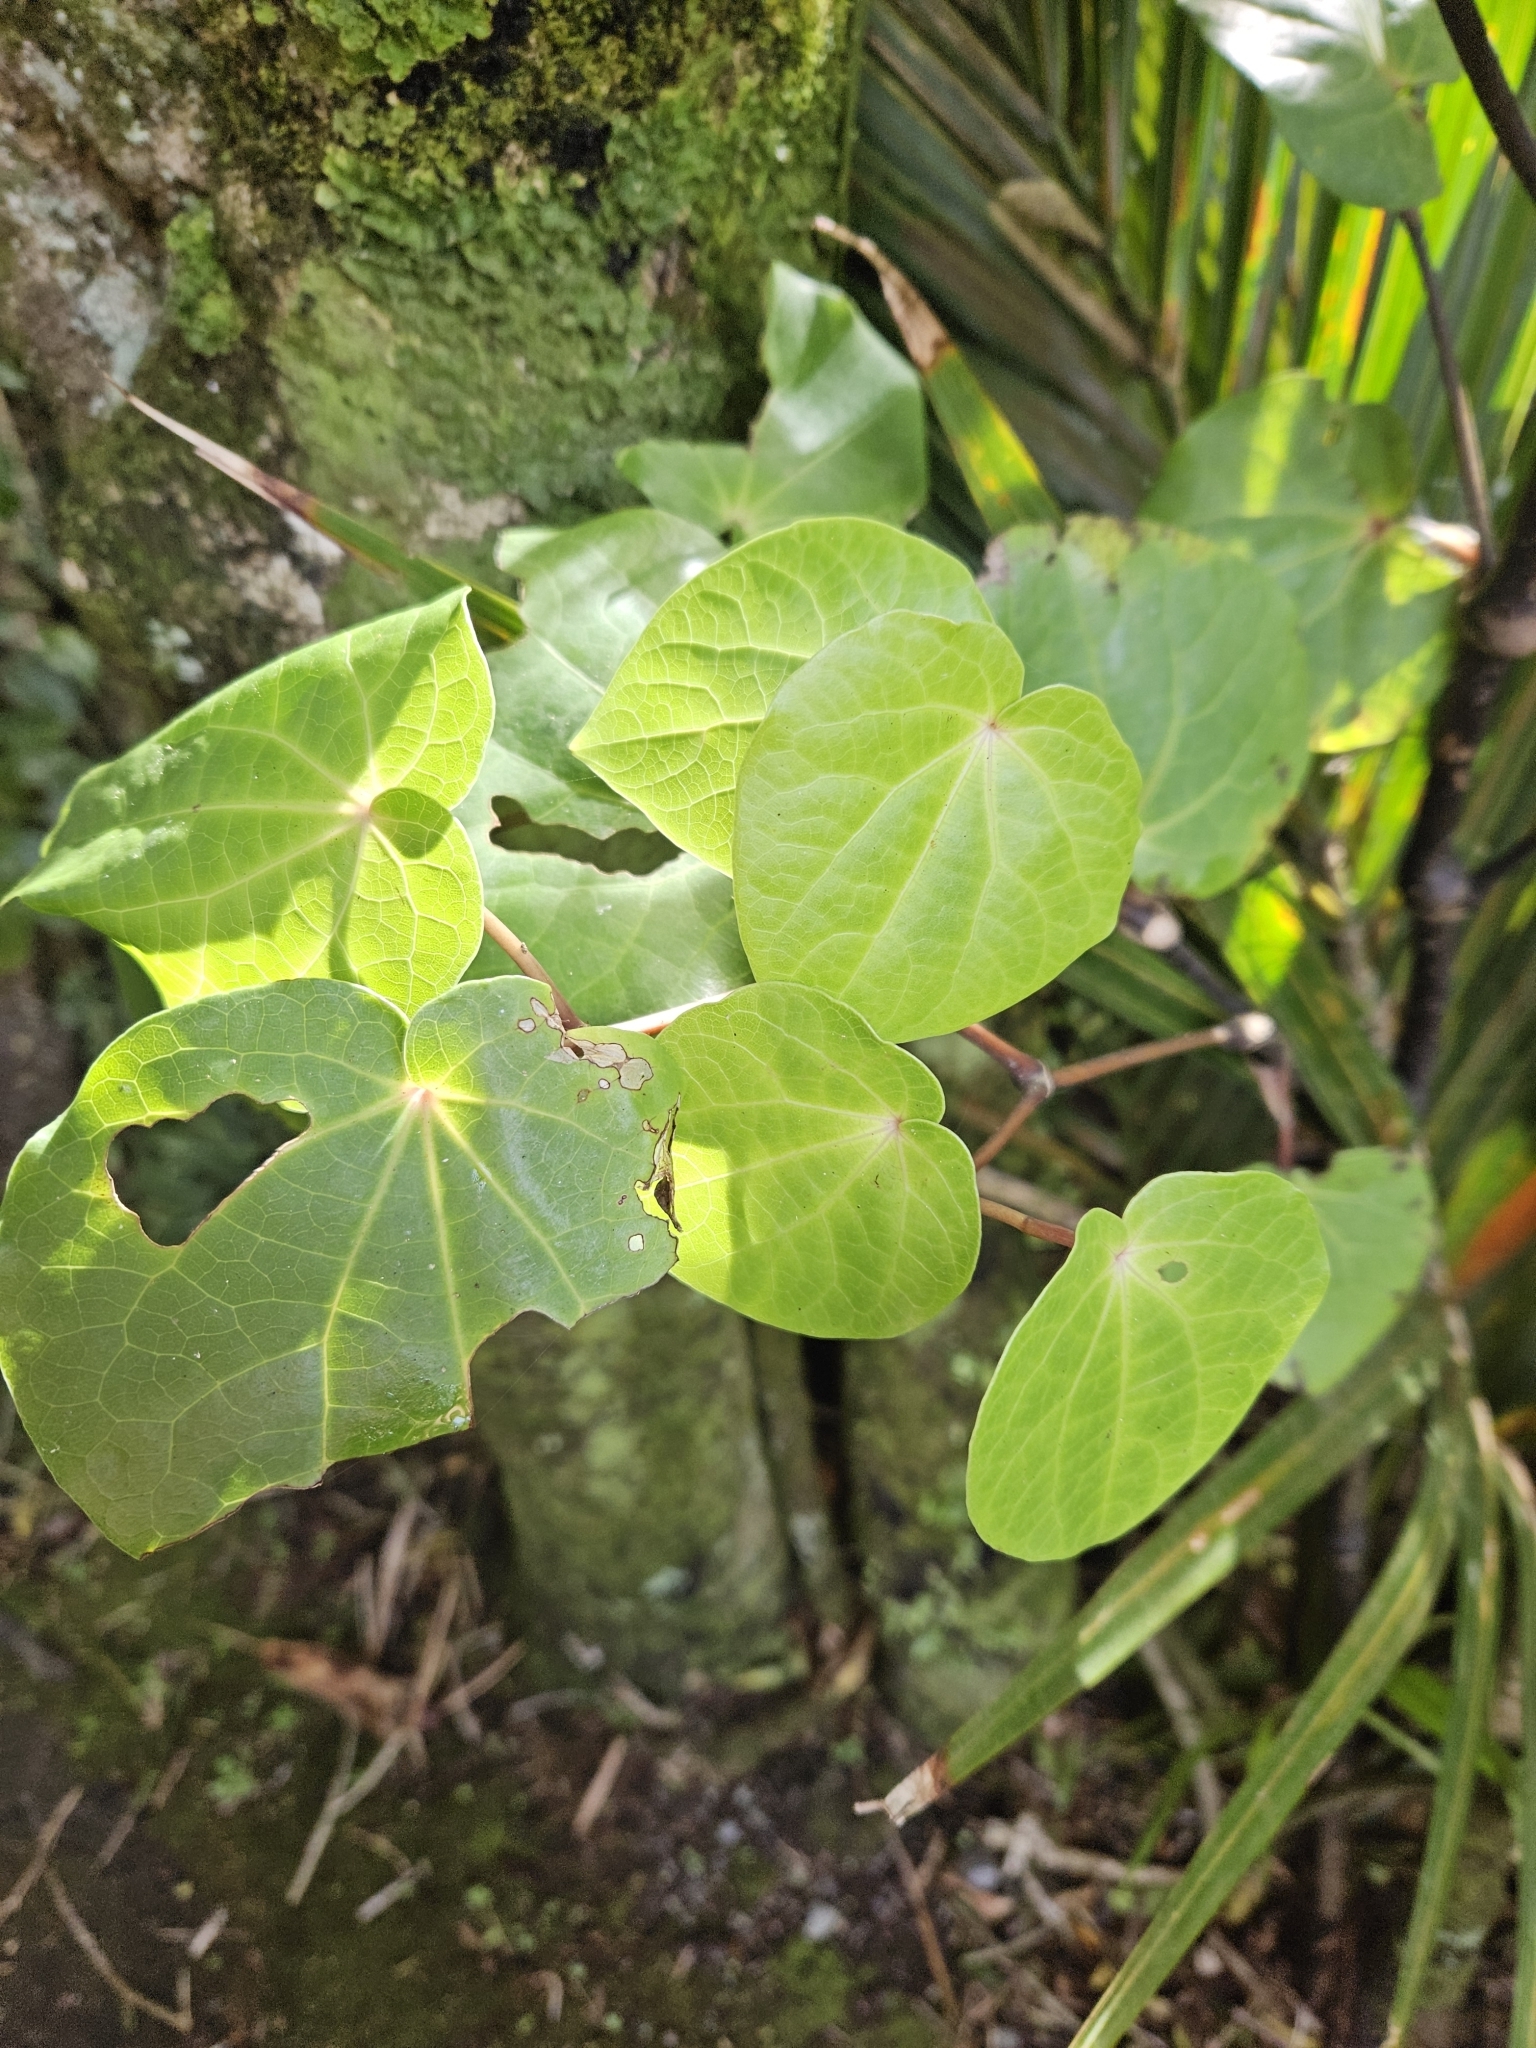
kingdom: Plantae
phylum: Tracheophyta
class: Magnoliopsida
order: Piperales
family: Piperaceae
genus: Macropiper
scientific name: Macropiper excelsum
